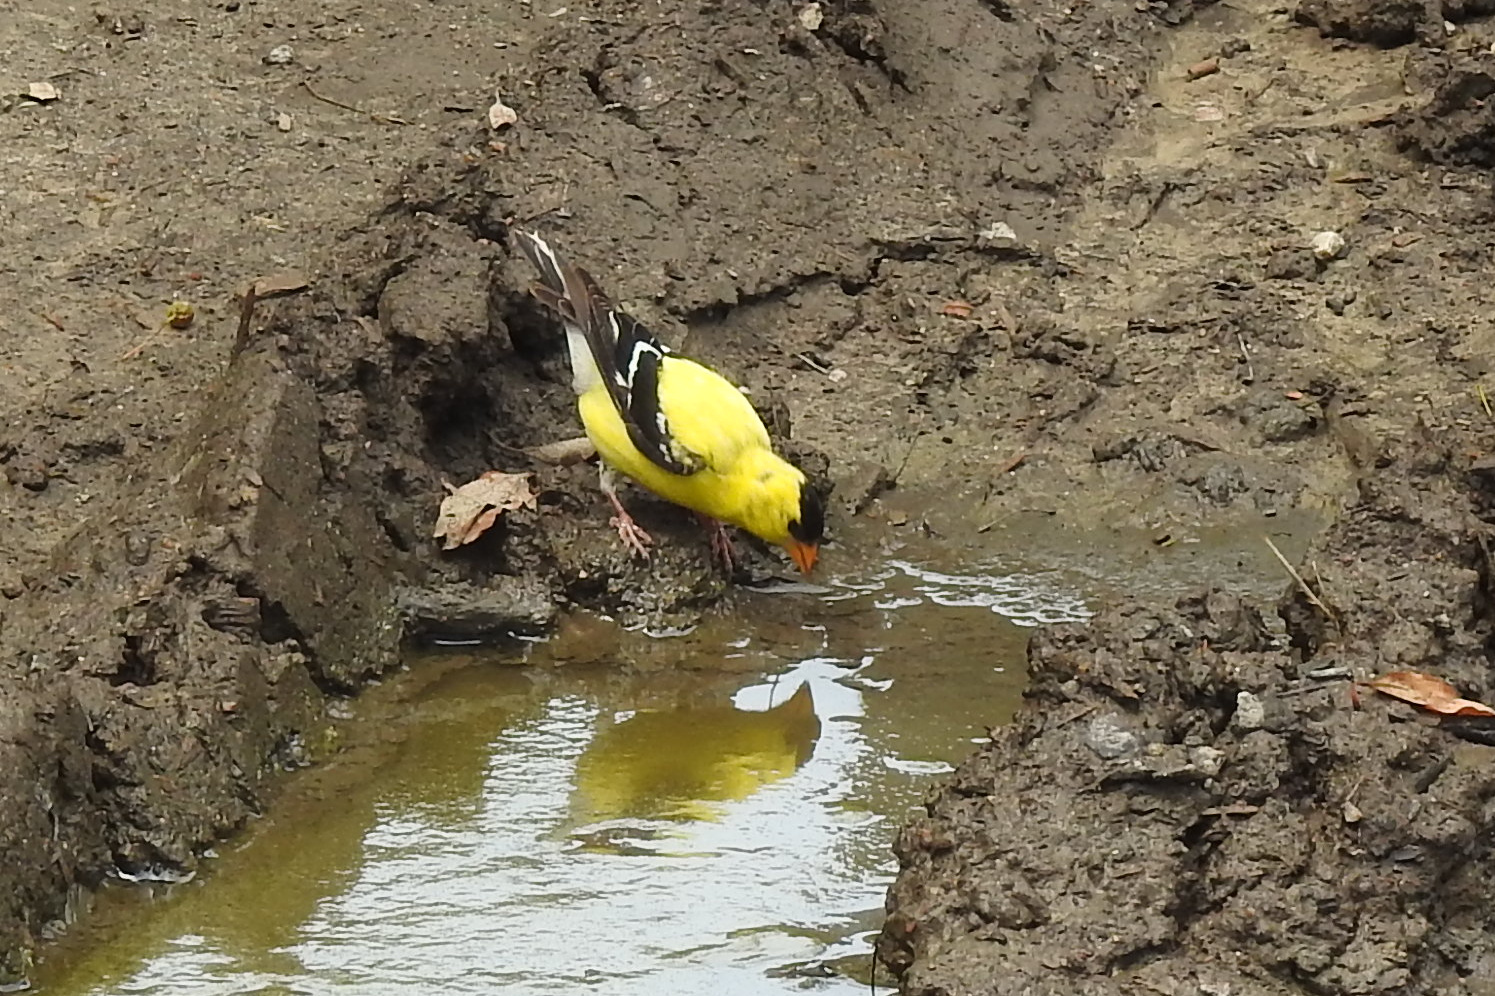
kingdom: Animalia
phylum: Chordata
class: Aves
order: Passeriformes
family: Fringillidae
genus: Spinus
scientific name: Spinus tristis
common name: American goldfinch
